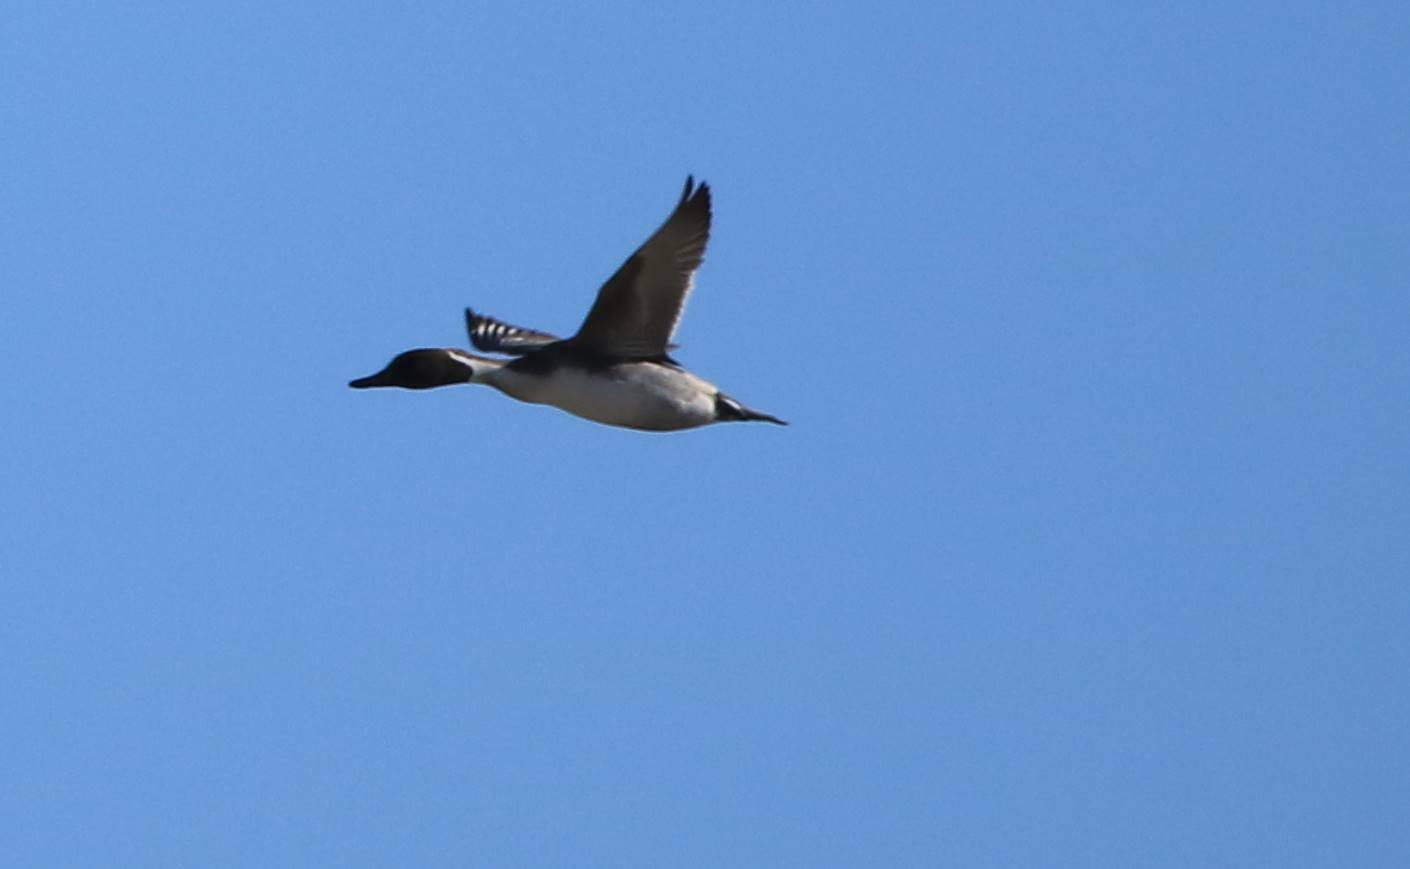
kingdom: Animalia
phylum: Chordata
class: Aves
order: Anseriformes
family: Anatidae
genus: Anas
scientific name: Anas acuta
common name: Northern pintail
